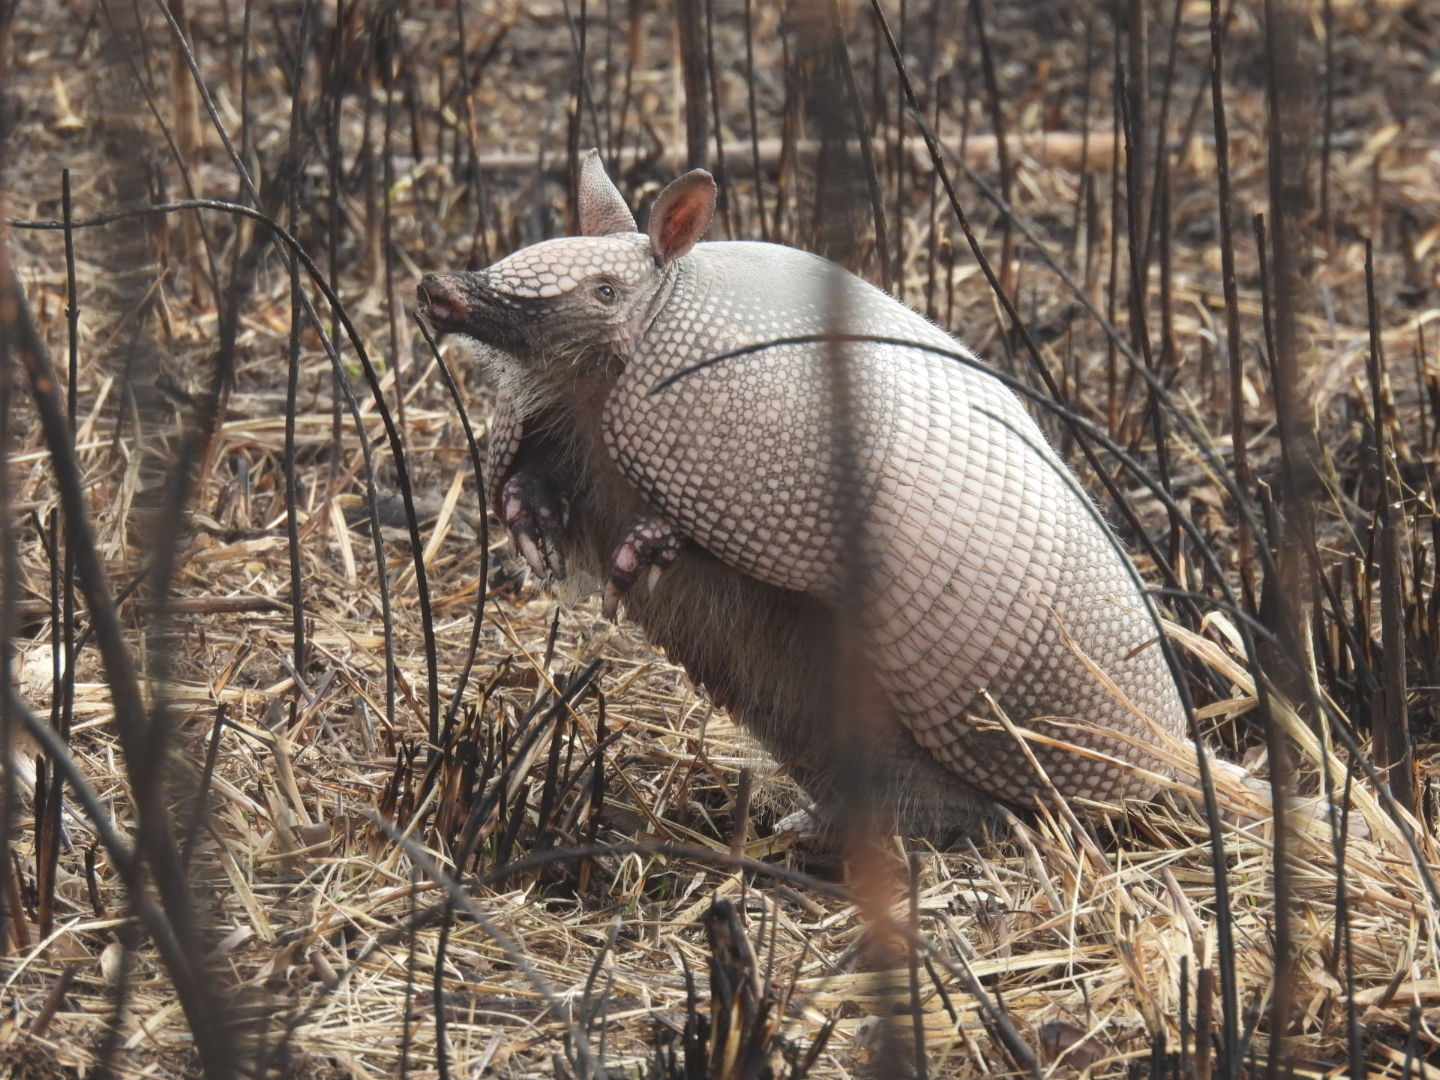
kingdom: Animalia
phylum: Chordata
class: Mammalia
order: Cingulata
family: Dasypodidae
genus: Dasypus
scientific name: Dasypus novemcinctus
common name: Nine-banded armadillo
